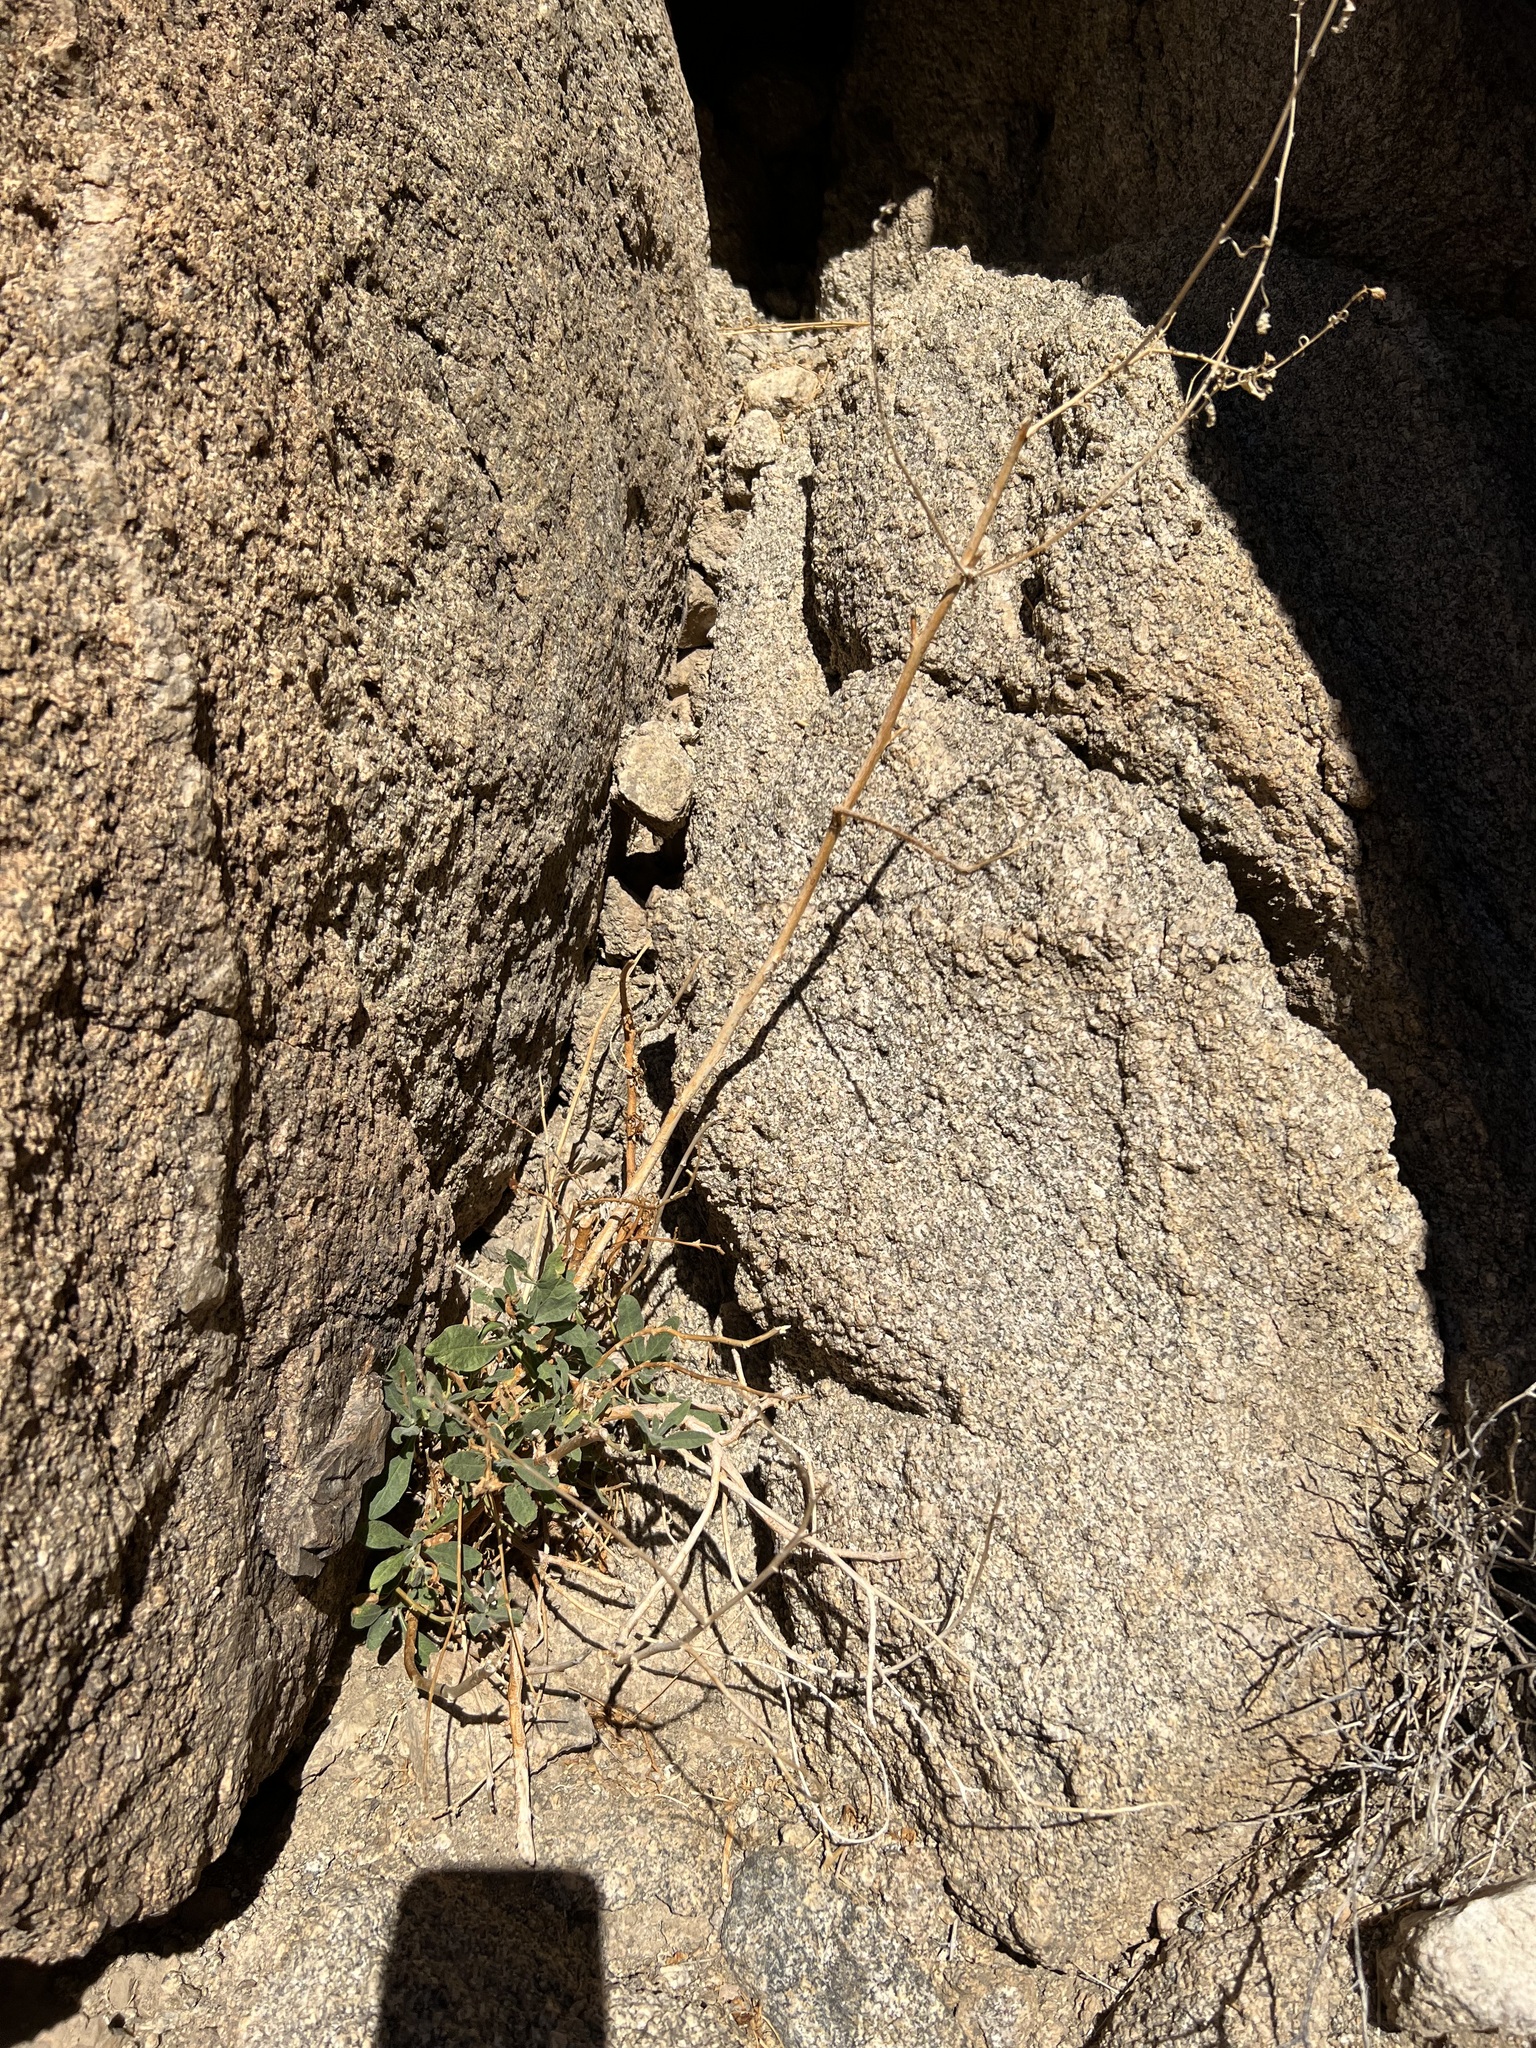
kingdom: Plantae
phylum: Tracheophyta
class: Magnoliopsida
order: Solanales
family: Solanaceae
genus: Nicotiana
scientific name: Nicotiana obtusifolia
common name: Desert tobacco
